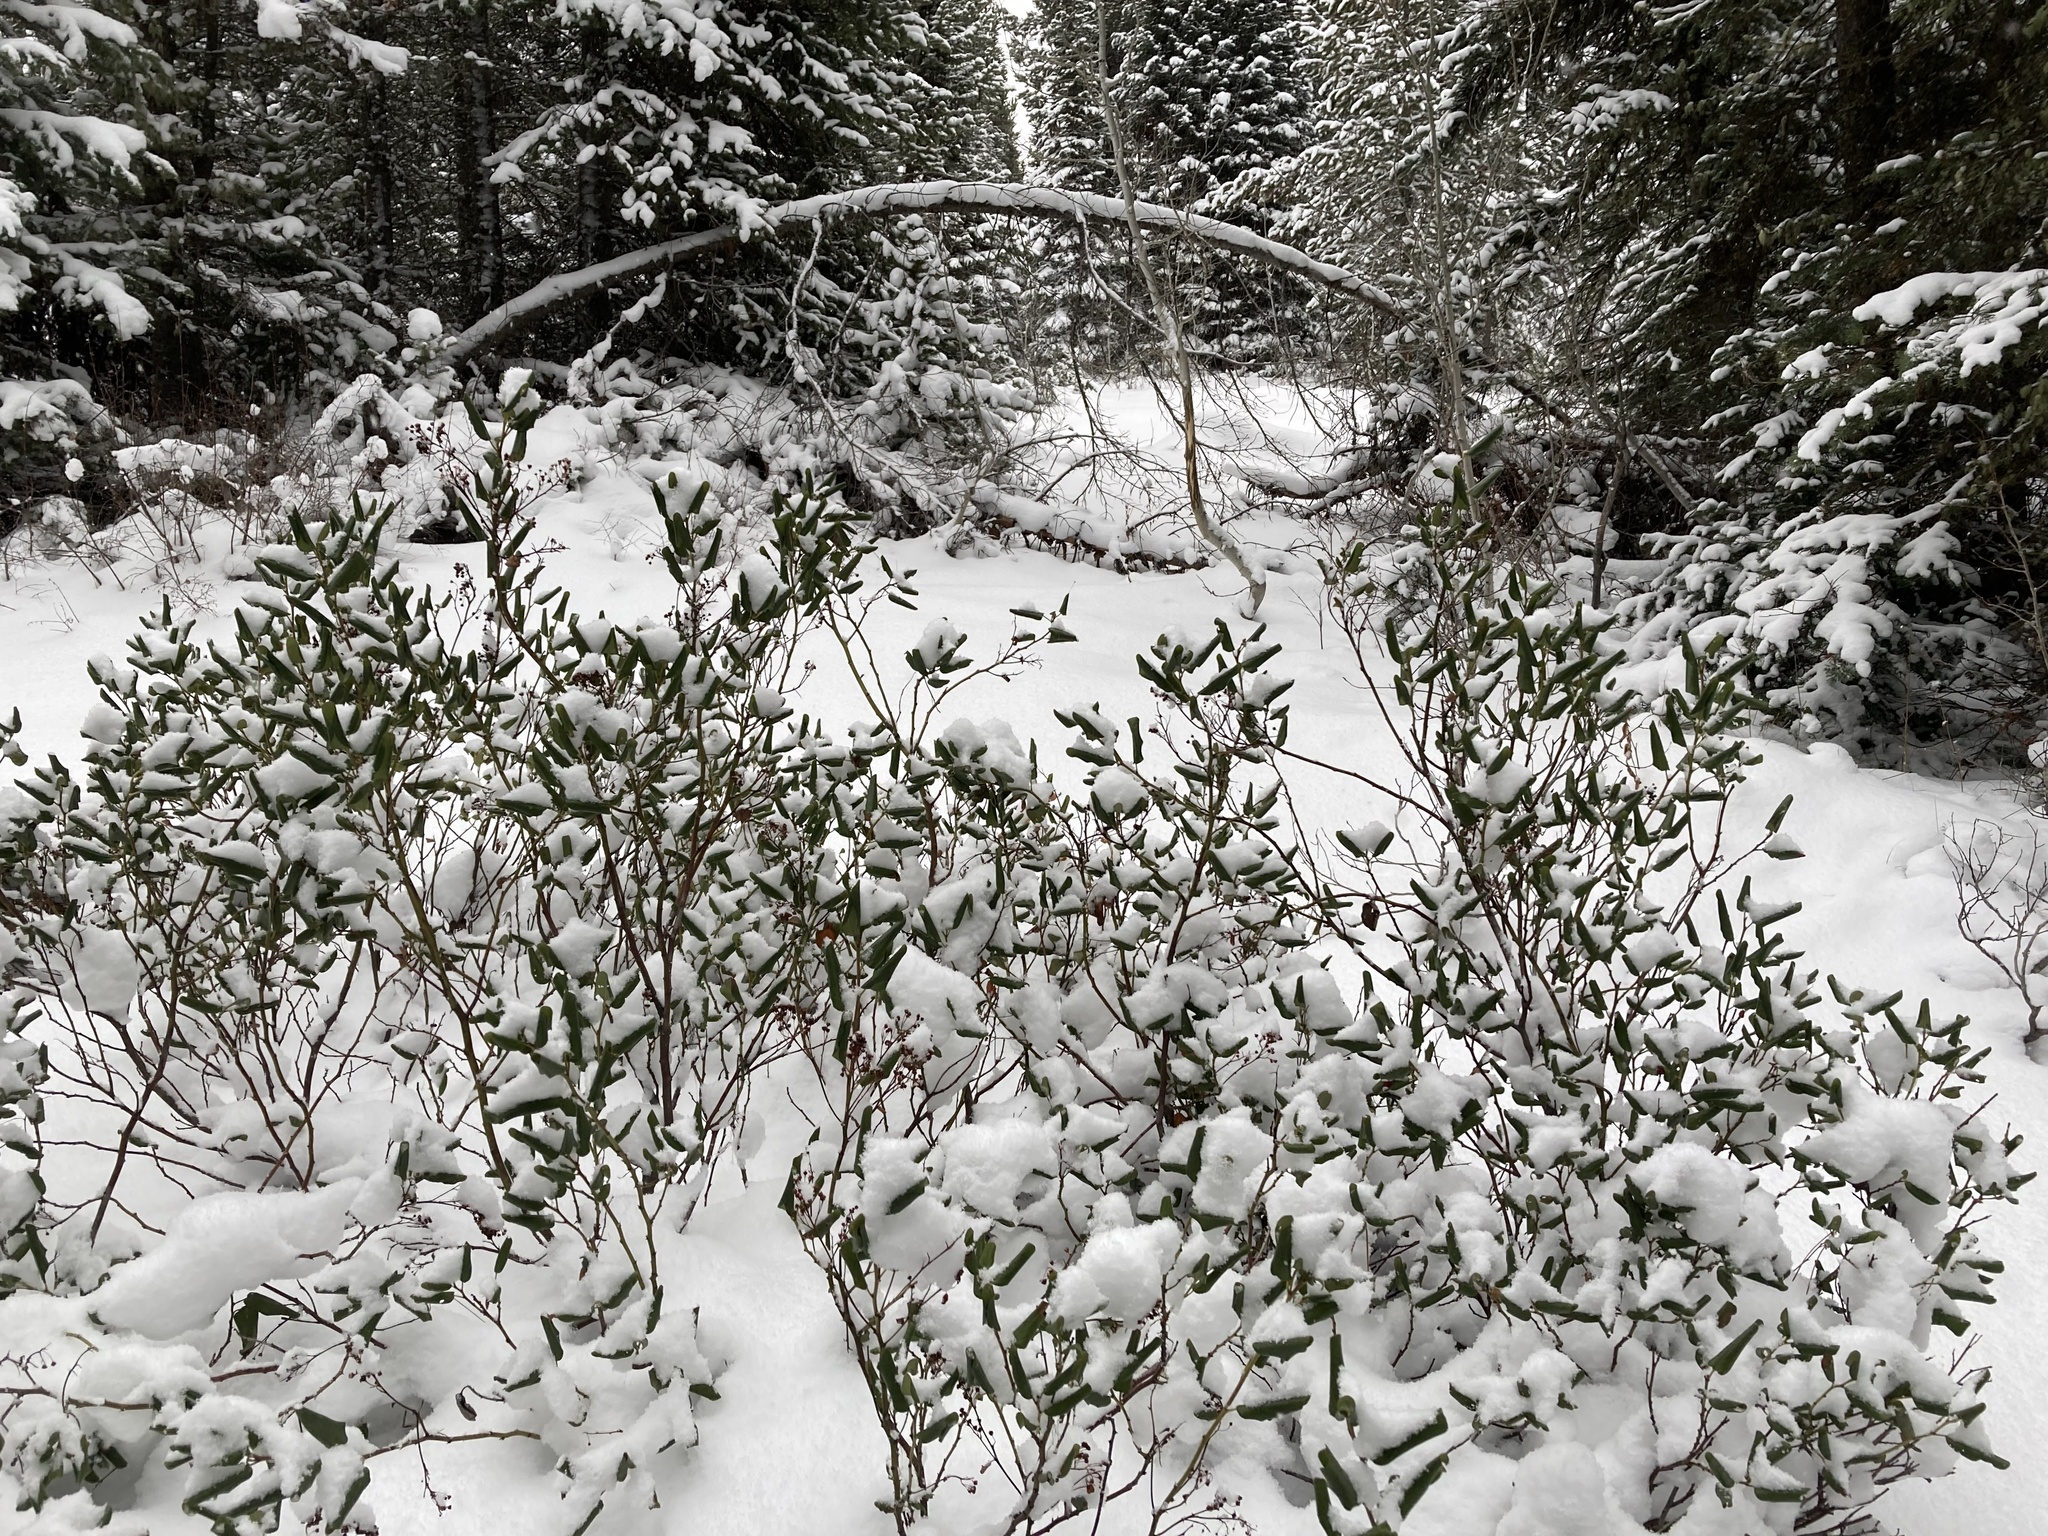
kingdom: Plantae
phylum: Tracheophyta
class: Magnoliopsida
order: Rosales
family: Rhamnaceae
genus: Ceanothus
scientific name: Ceanothus velutinus
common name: Snowbrush
